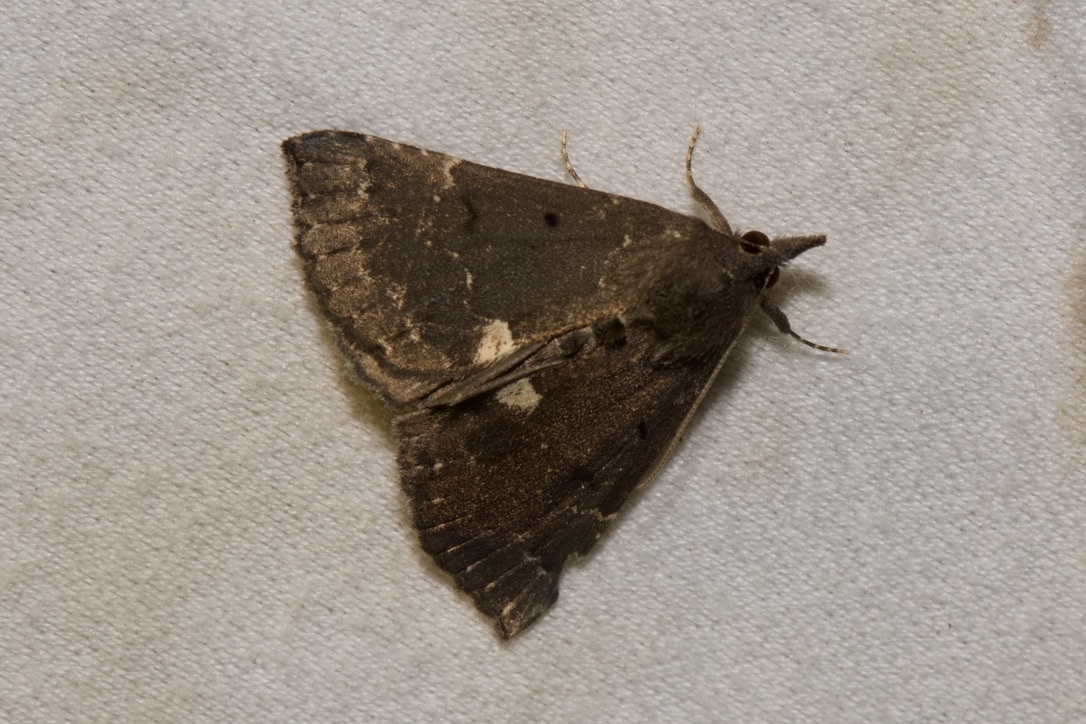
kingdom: Animalia
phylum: Arthropoda
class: Insecta
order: Lepidoptera
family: Erebidae
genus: Hypena
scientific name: Hypena bijugalis
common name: Dimorphic bomolocha moth
